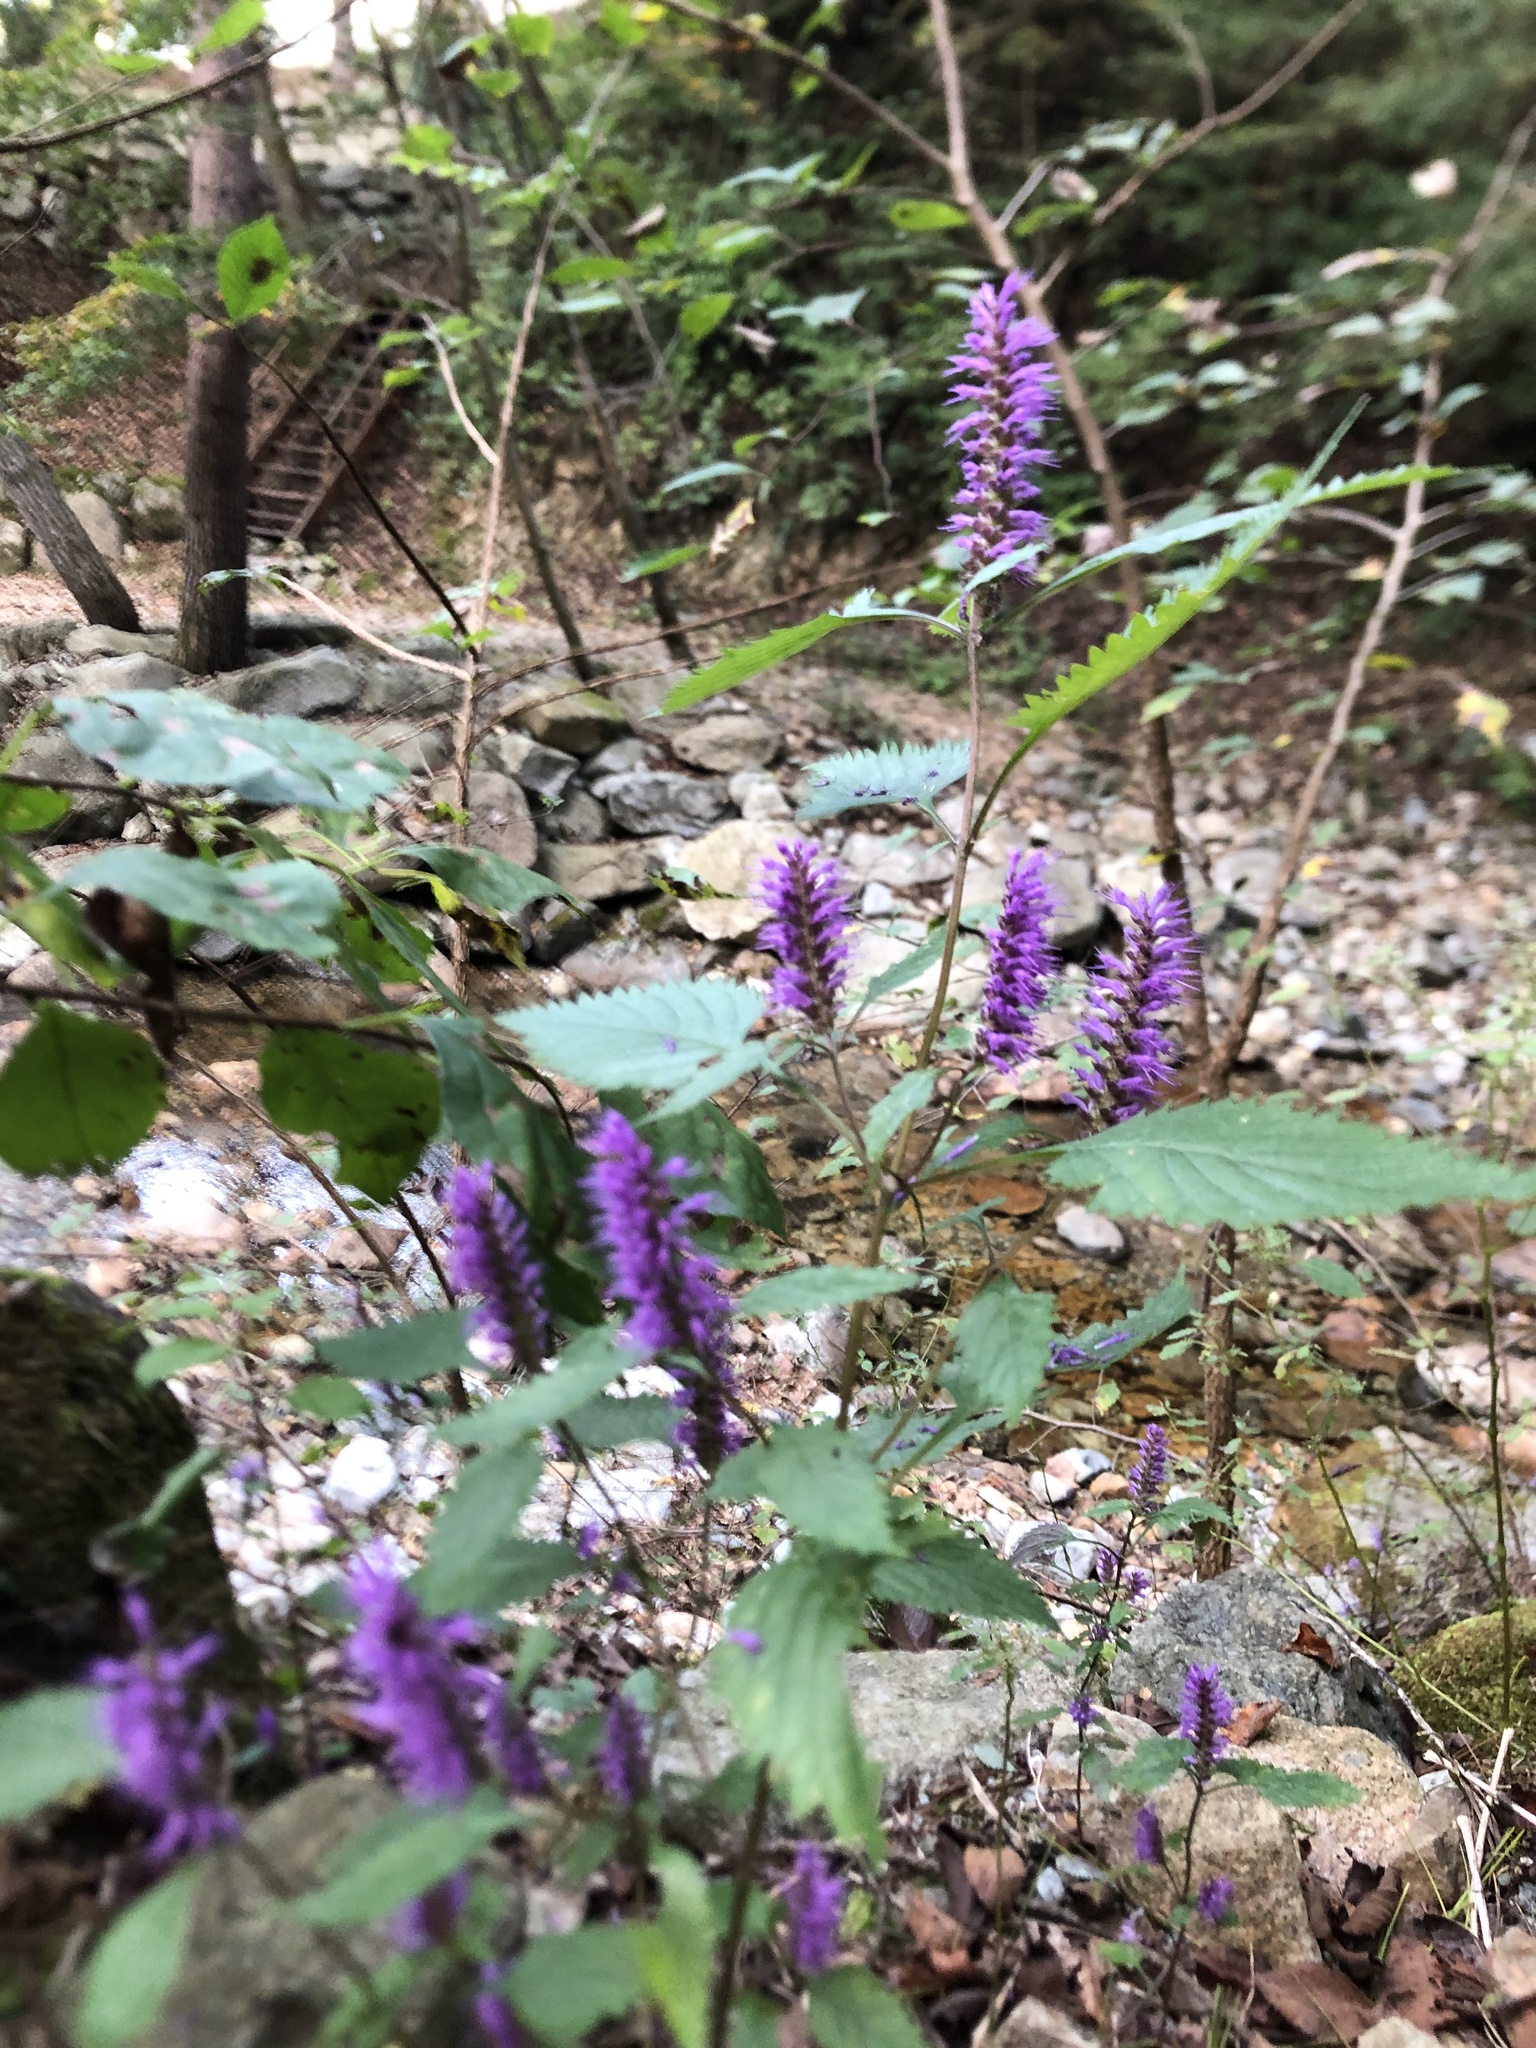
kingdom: Plantae
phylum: Tracheophyta
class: Magnoliopsida
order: Lamiales
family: Lamiaceae
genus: Agastache
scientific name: Agastache rugosa
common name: Mint
